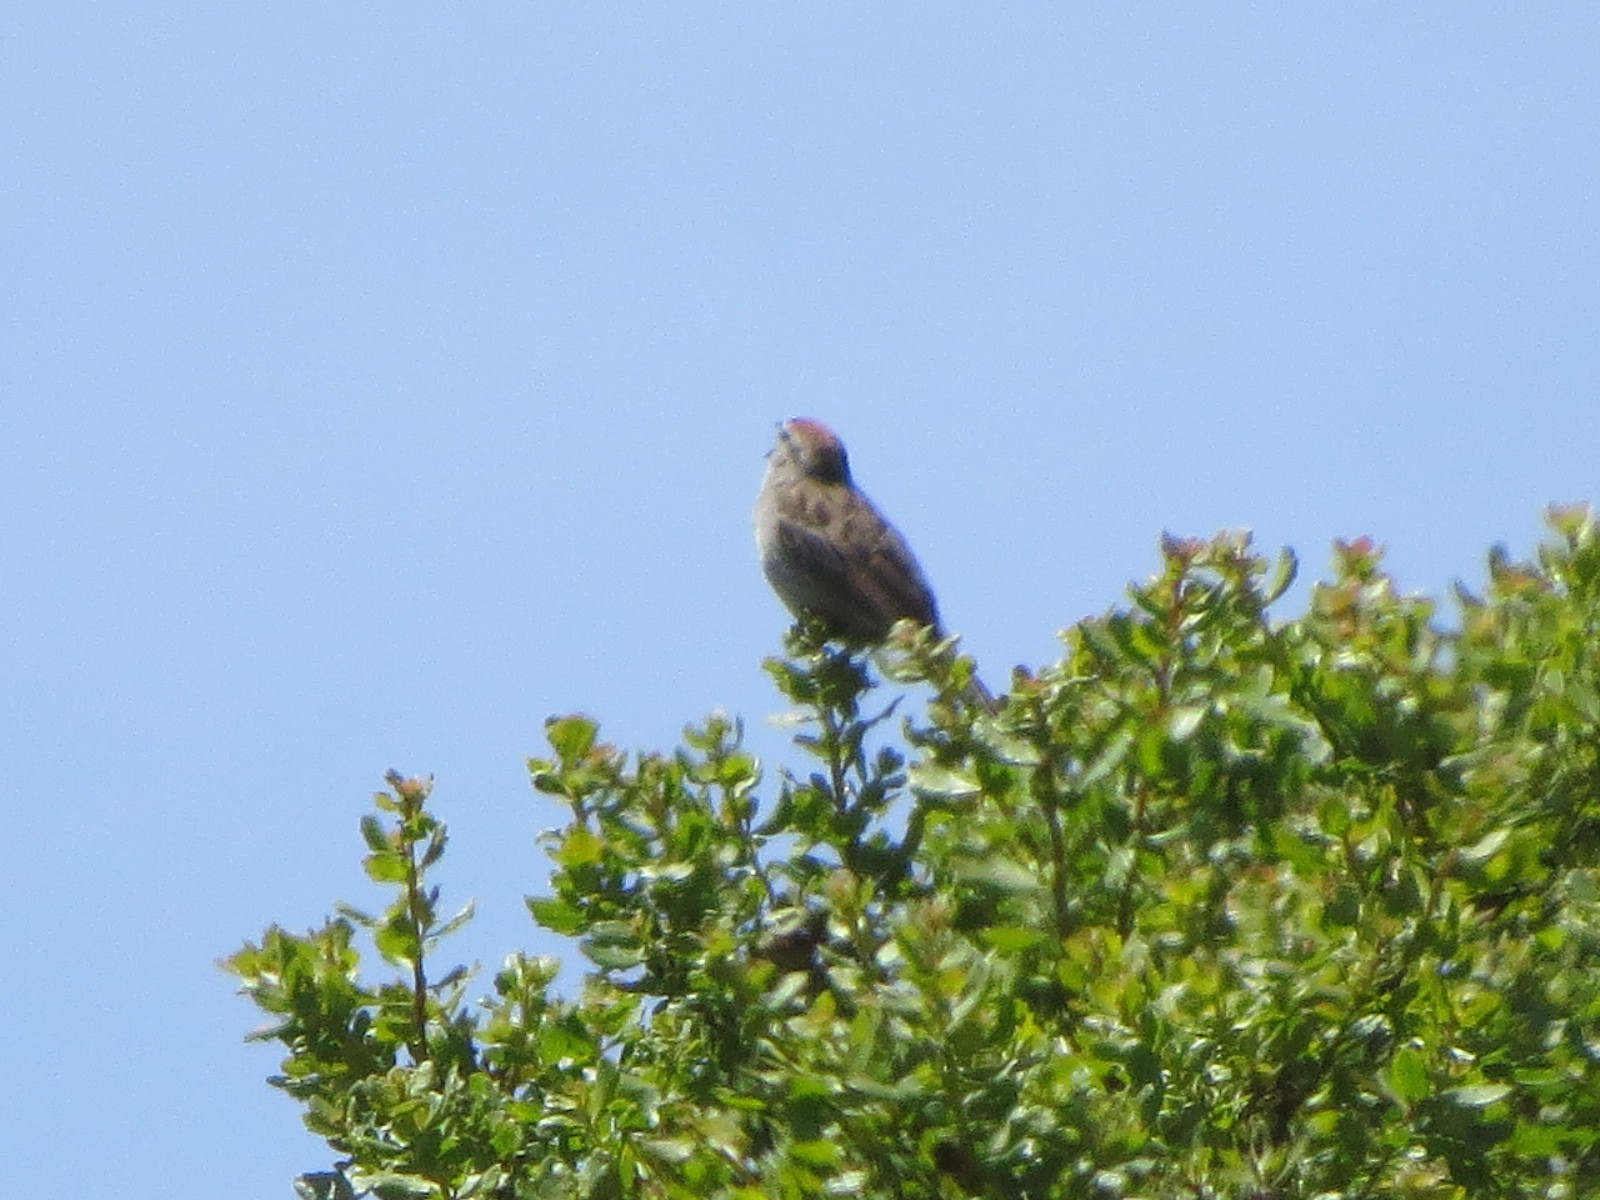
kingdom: Animalia
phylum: Chordata
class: Aves
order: Passeriformes
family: Passerellidae
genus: Spizella
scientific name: Spizella passerina
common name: Chipping sparrow
